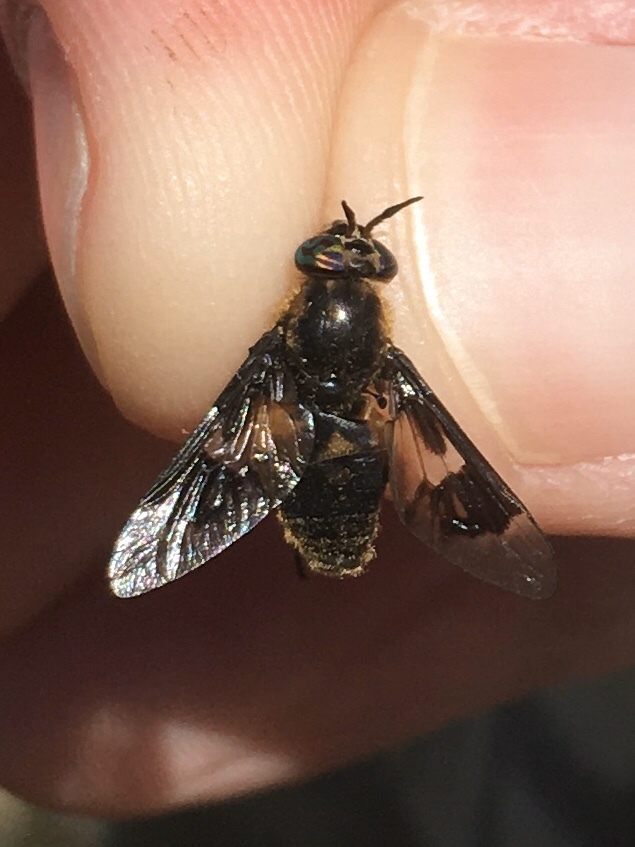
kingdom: Animalia
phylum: Arthropoda
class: Insecta
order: Diptera
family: Tabanidae
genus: Chrysops
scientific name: Chrysops excitans
